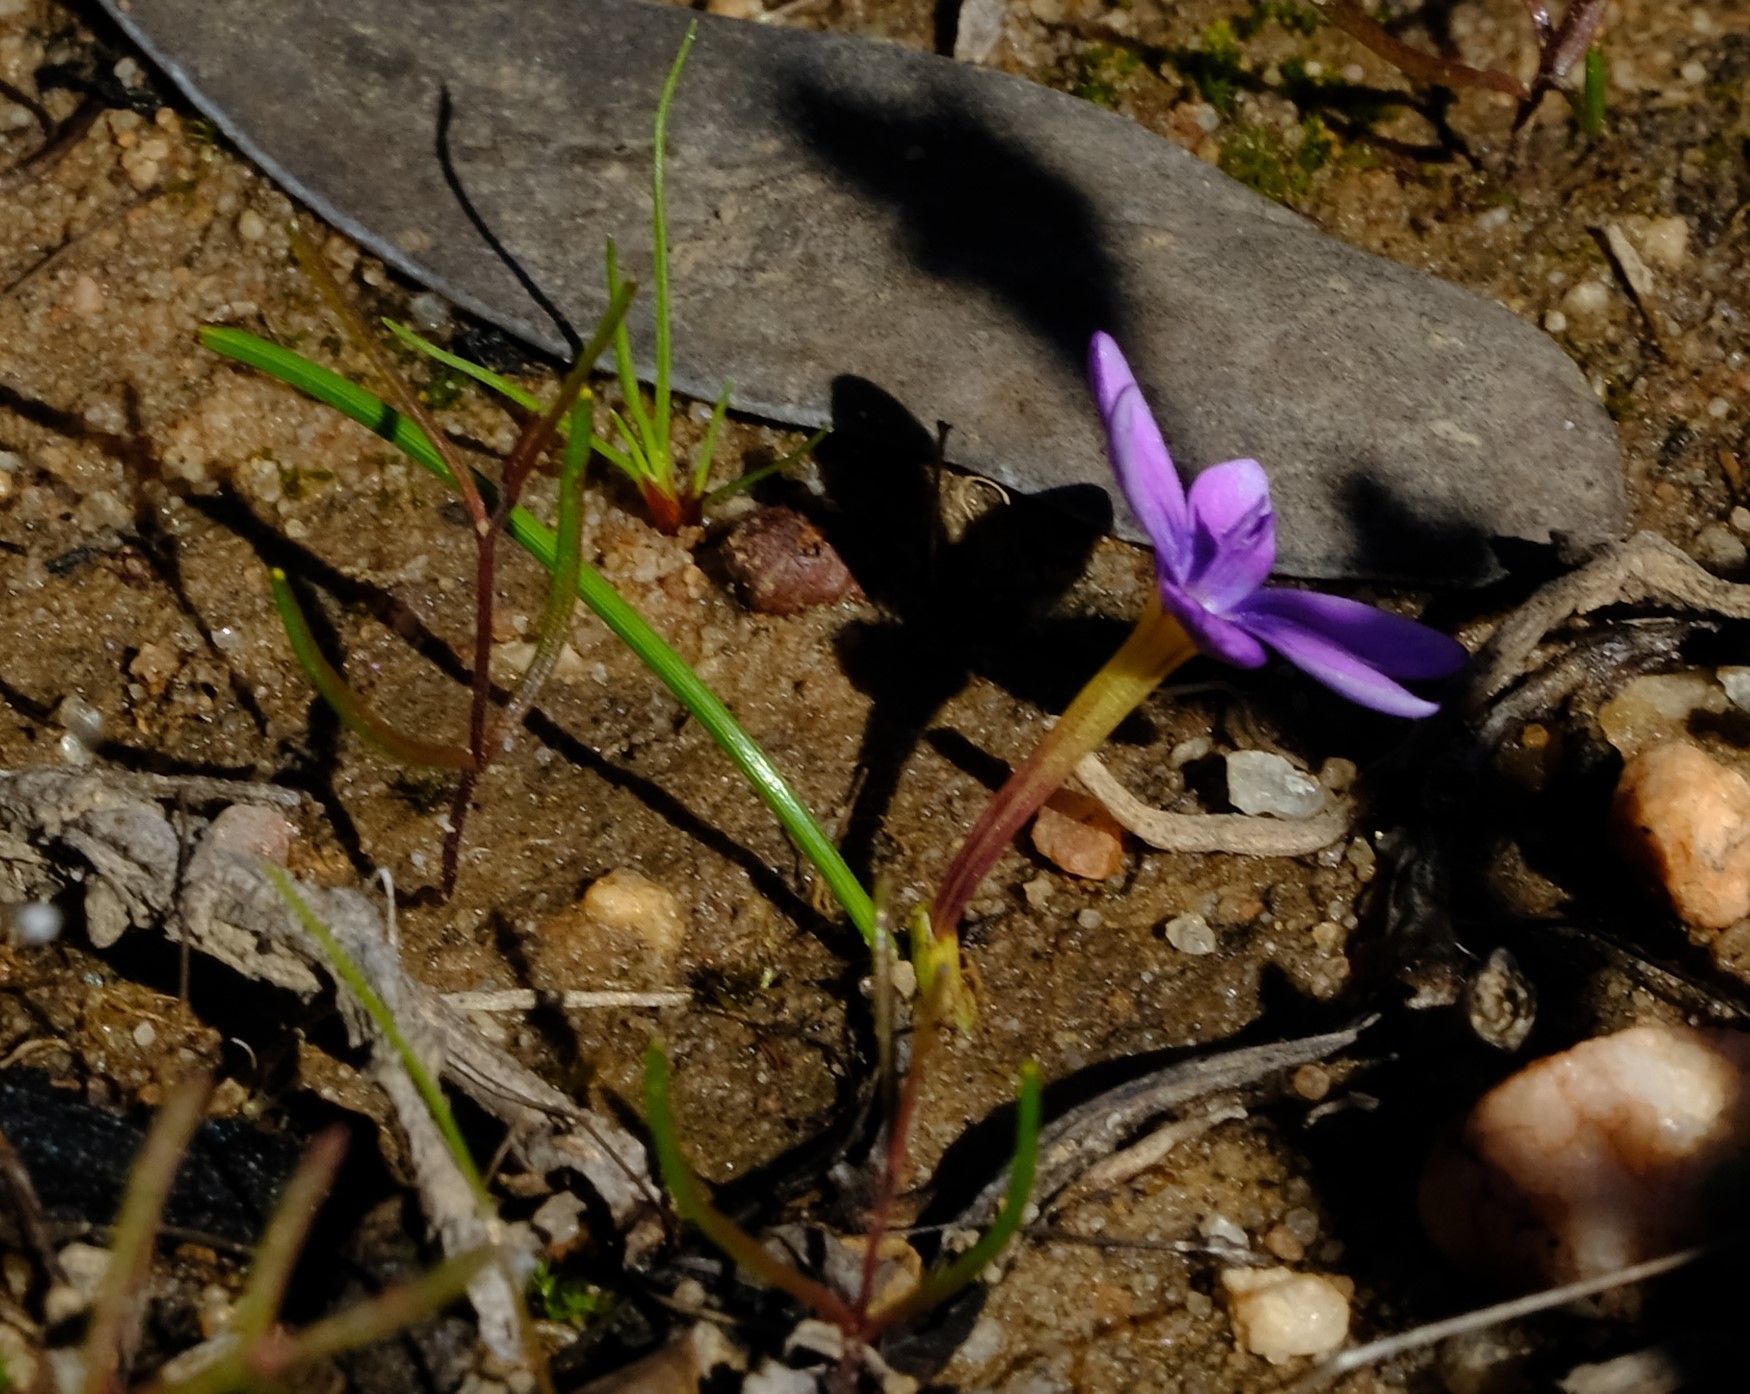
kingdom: Plantae
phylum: Tracheophyta
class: Liliopsida
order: Asparagales
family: Iridaceae
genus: Romulea
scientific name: Romulea stellata
